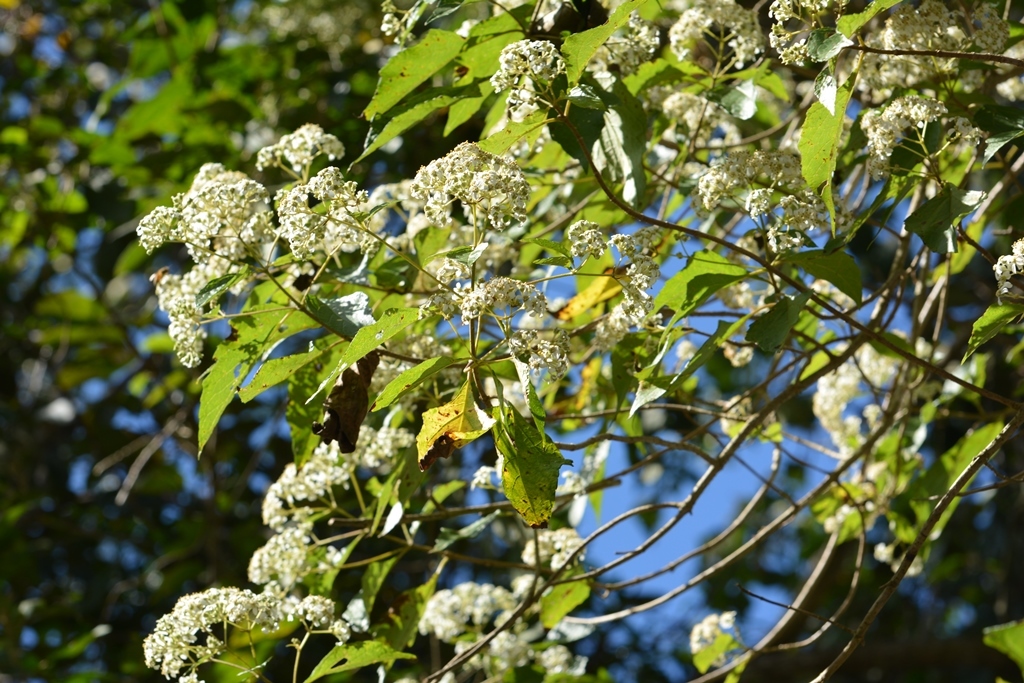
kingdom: Plantae
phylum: Tracheophyta
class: Magnoliopsida
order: Asterales
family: Asteraceae
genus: Montanoa
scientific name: Montanoa tomentosa
